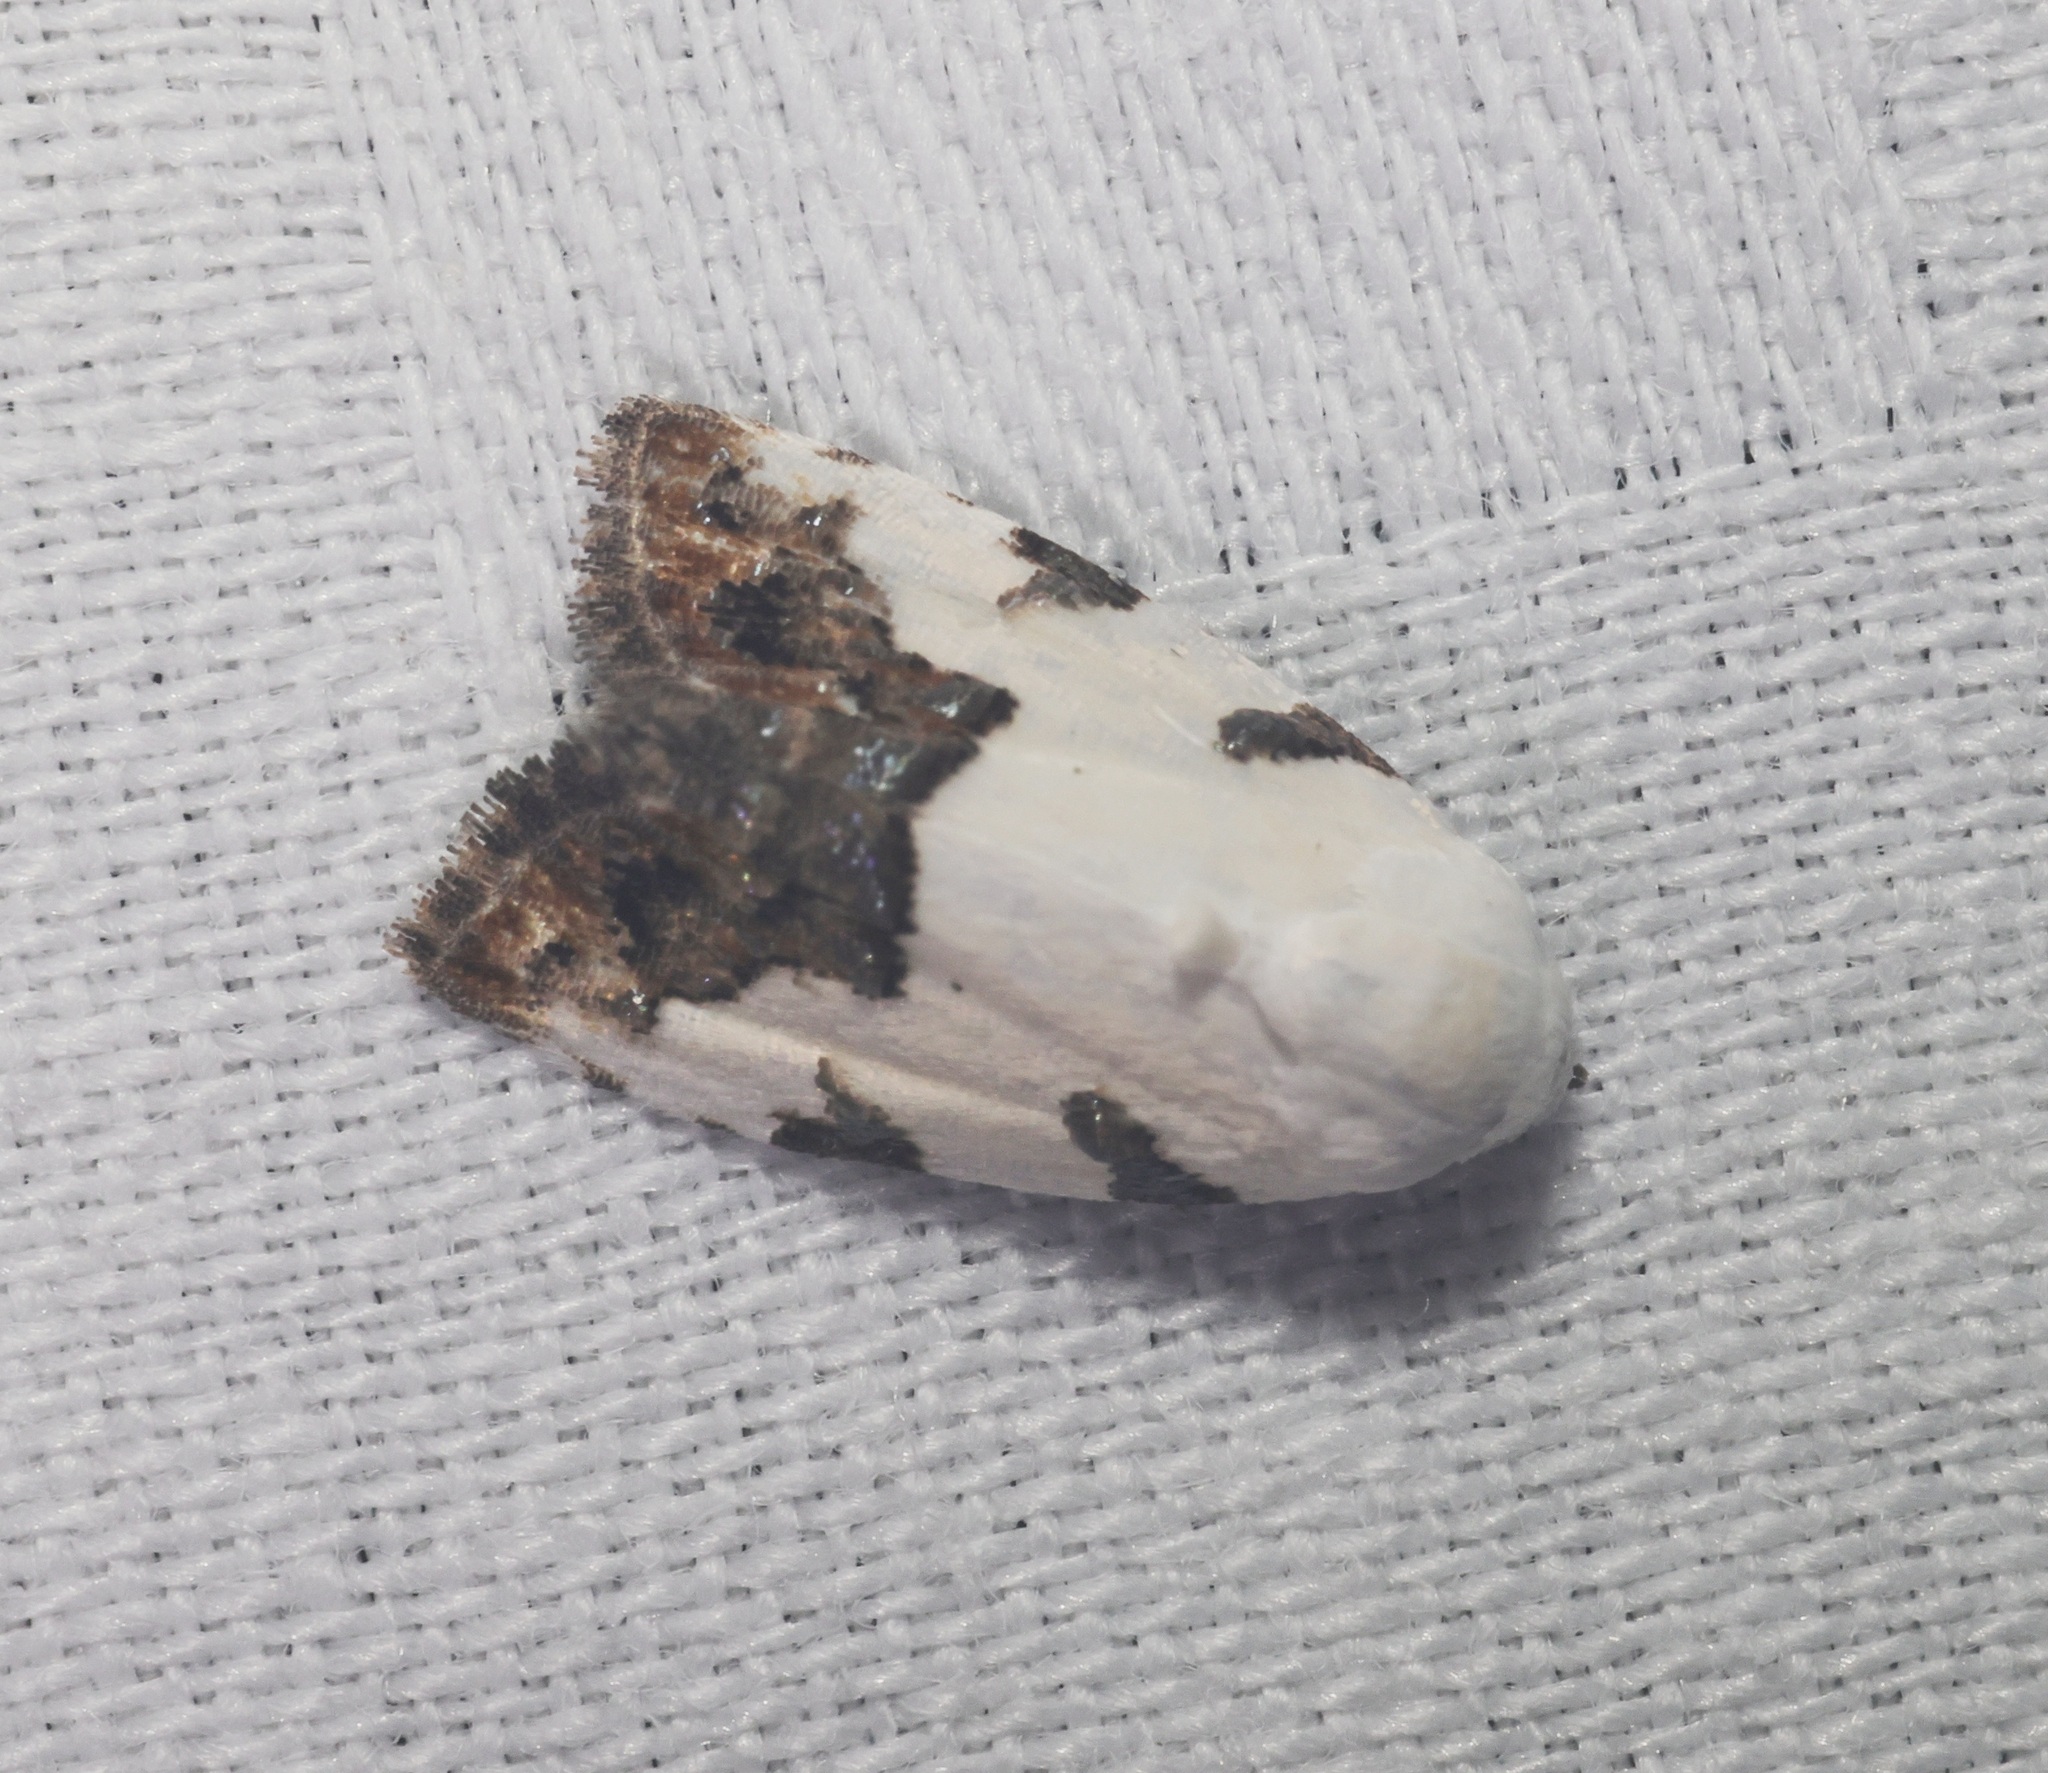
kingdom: Animalia
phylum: Arthropoda
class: Insecta
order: Lepidoptera
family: Nolidae
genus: Casminola
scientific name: Casminola johannstumpfi
